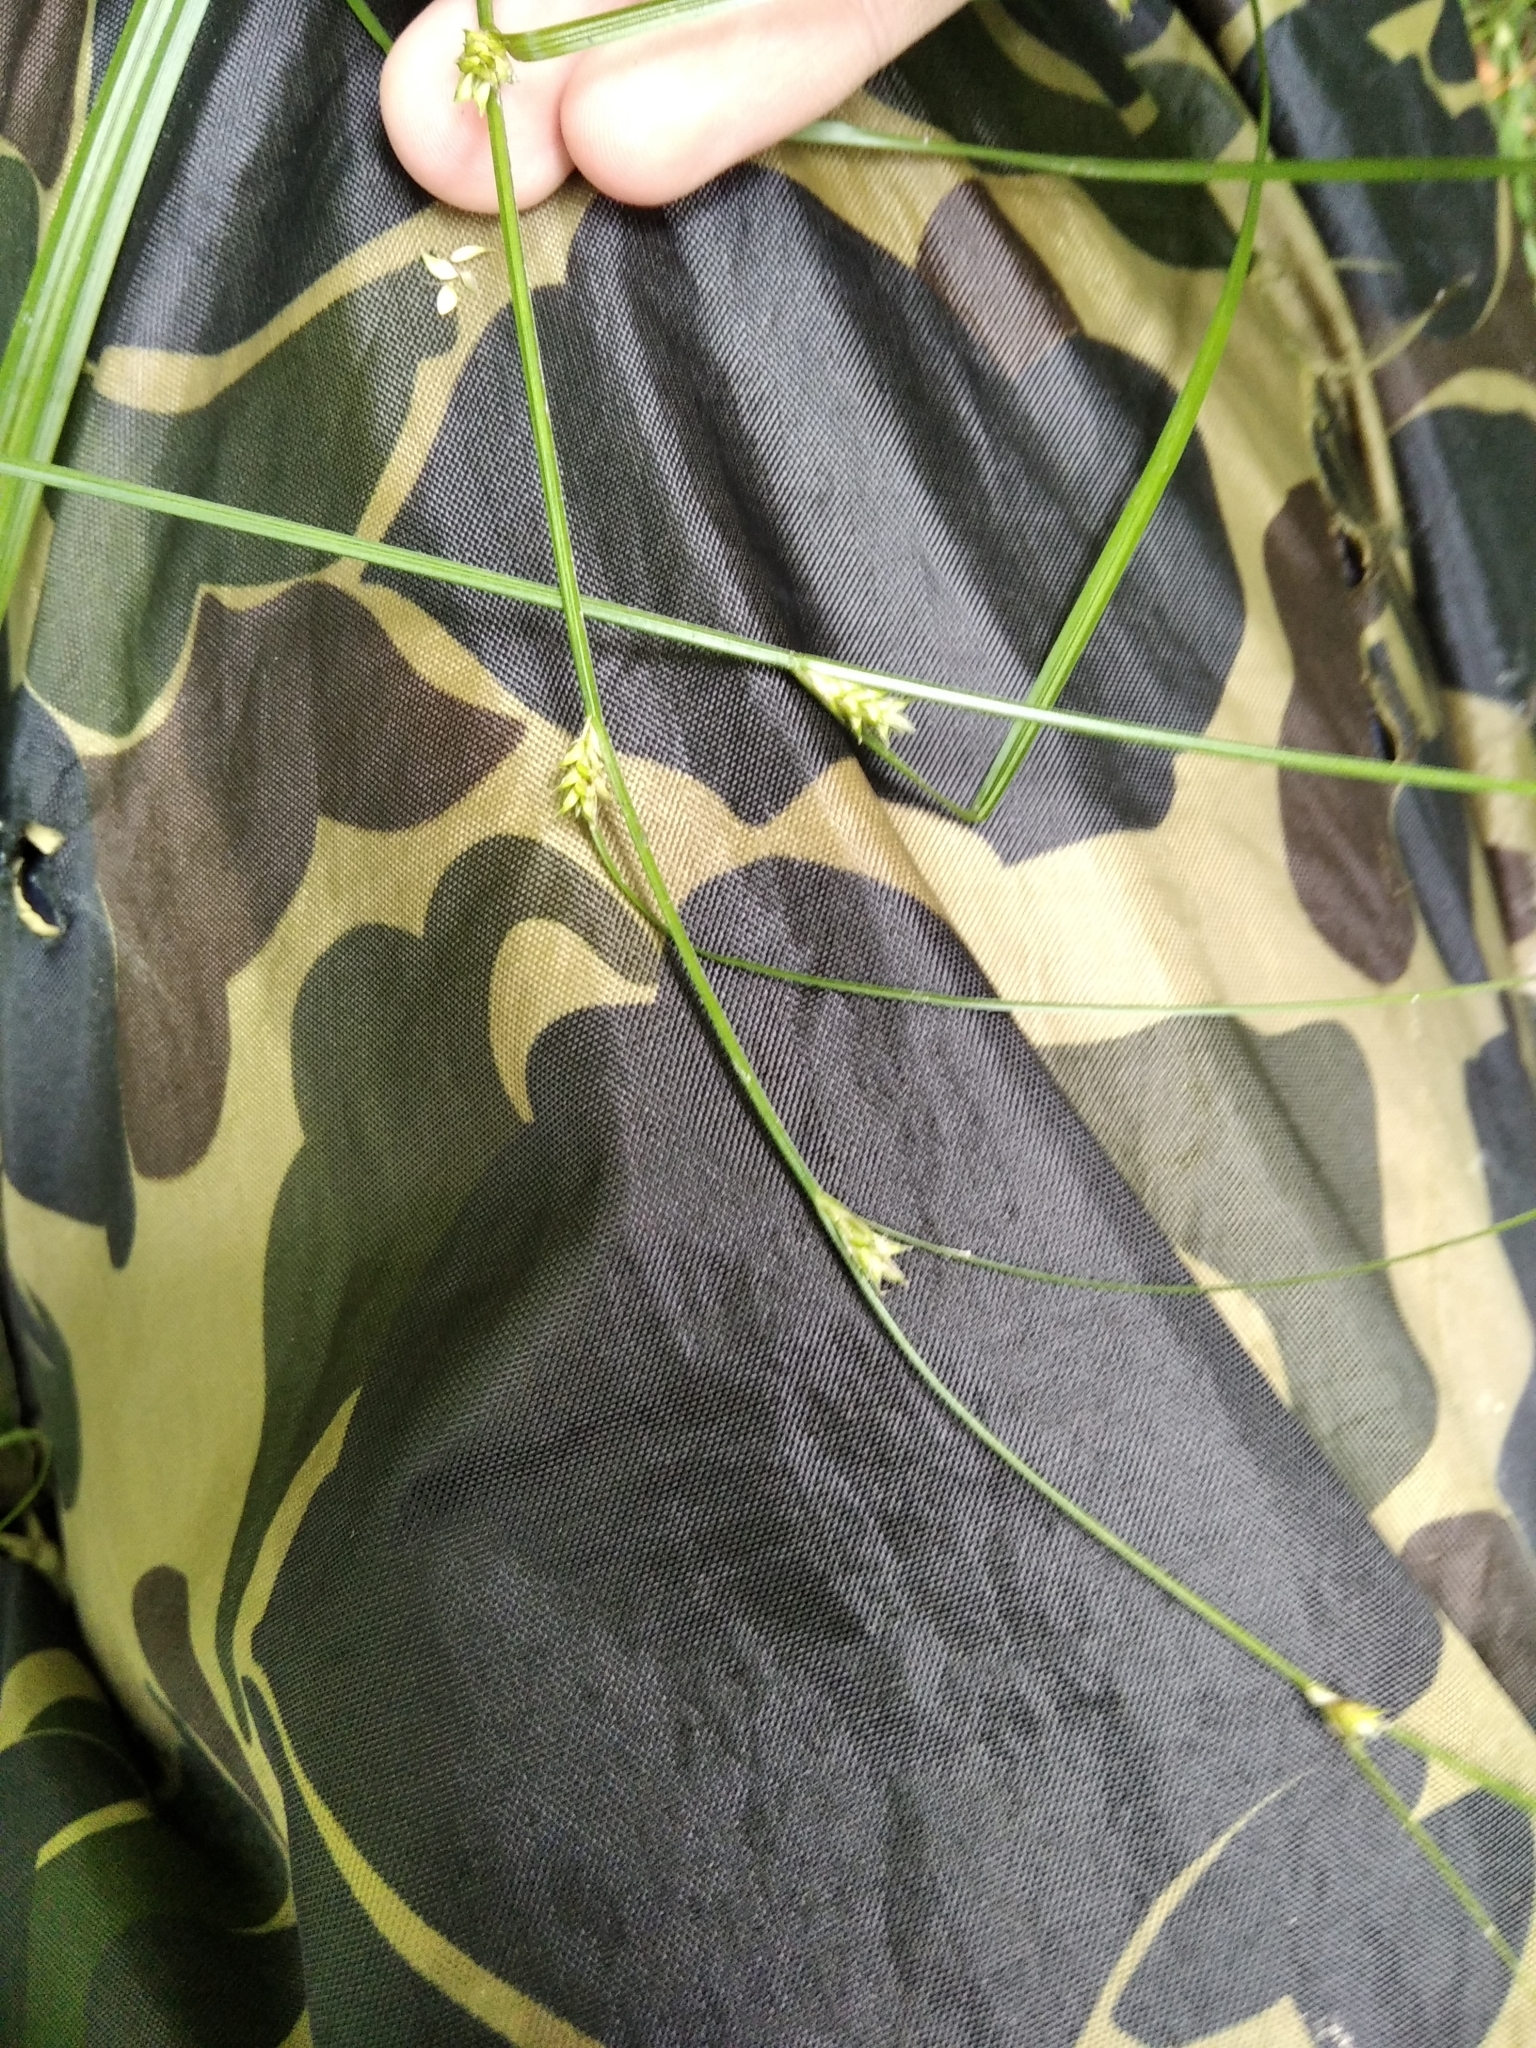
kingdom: Plantae
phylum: Tracheophyta
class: Liliopsida
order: Poales
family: Cyperaceae
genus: Carex
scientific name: Carex remota
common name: Remote sedge
